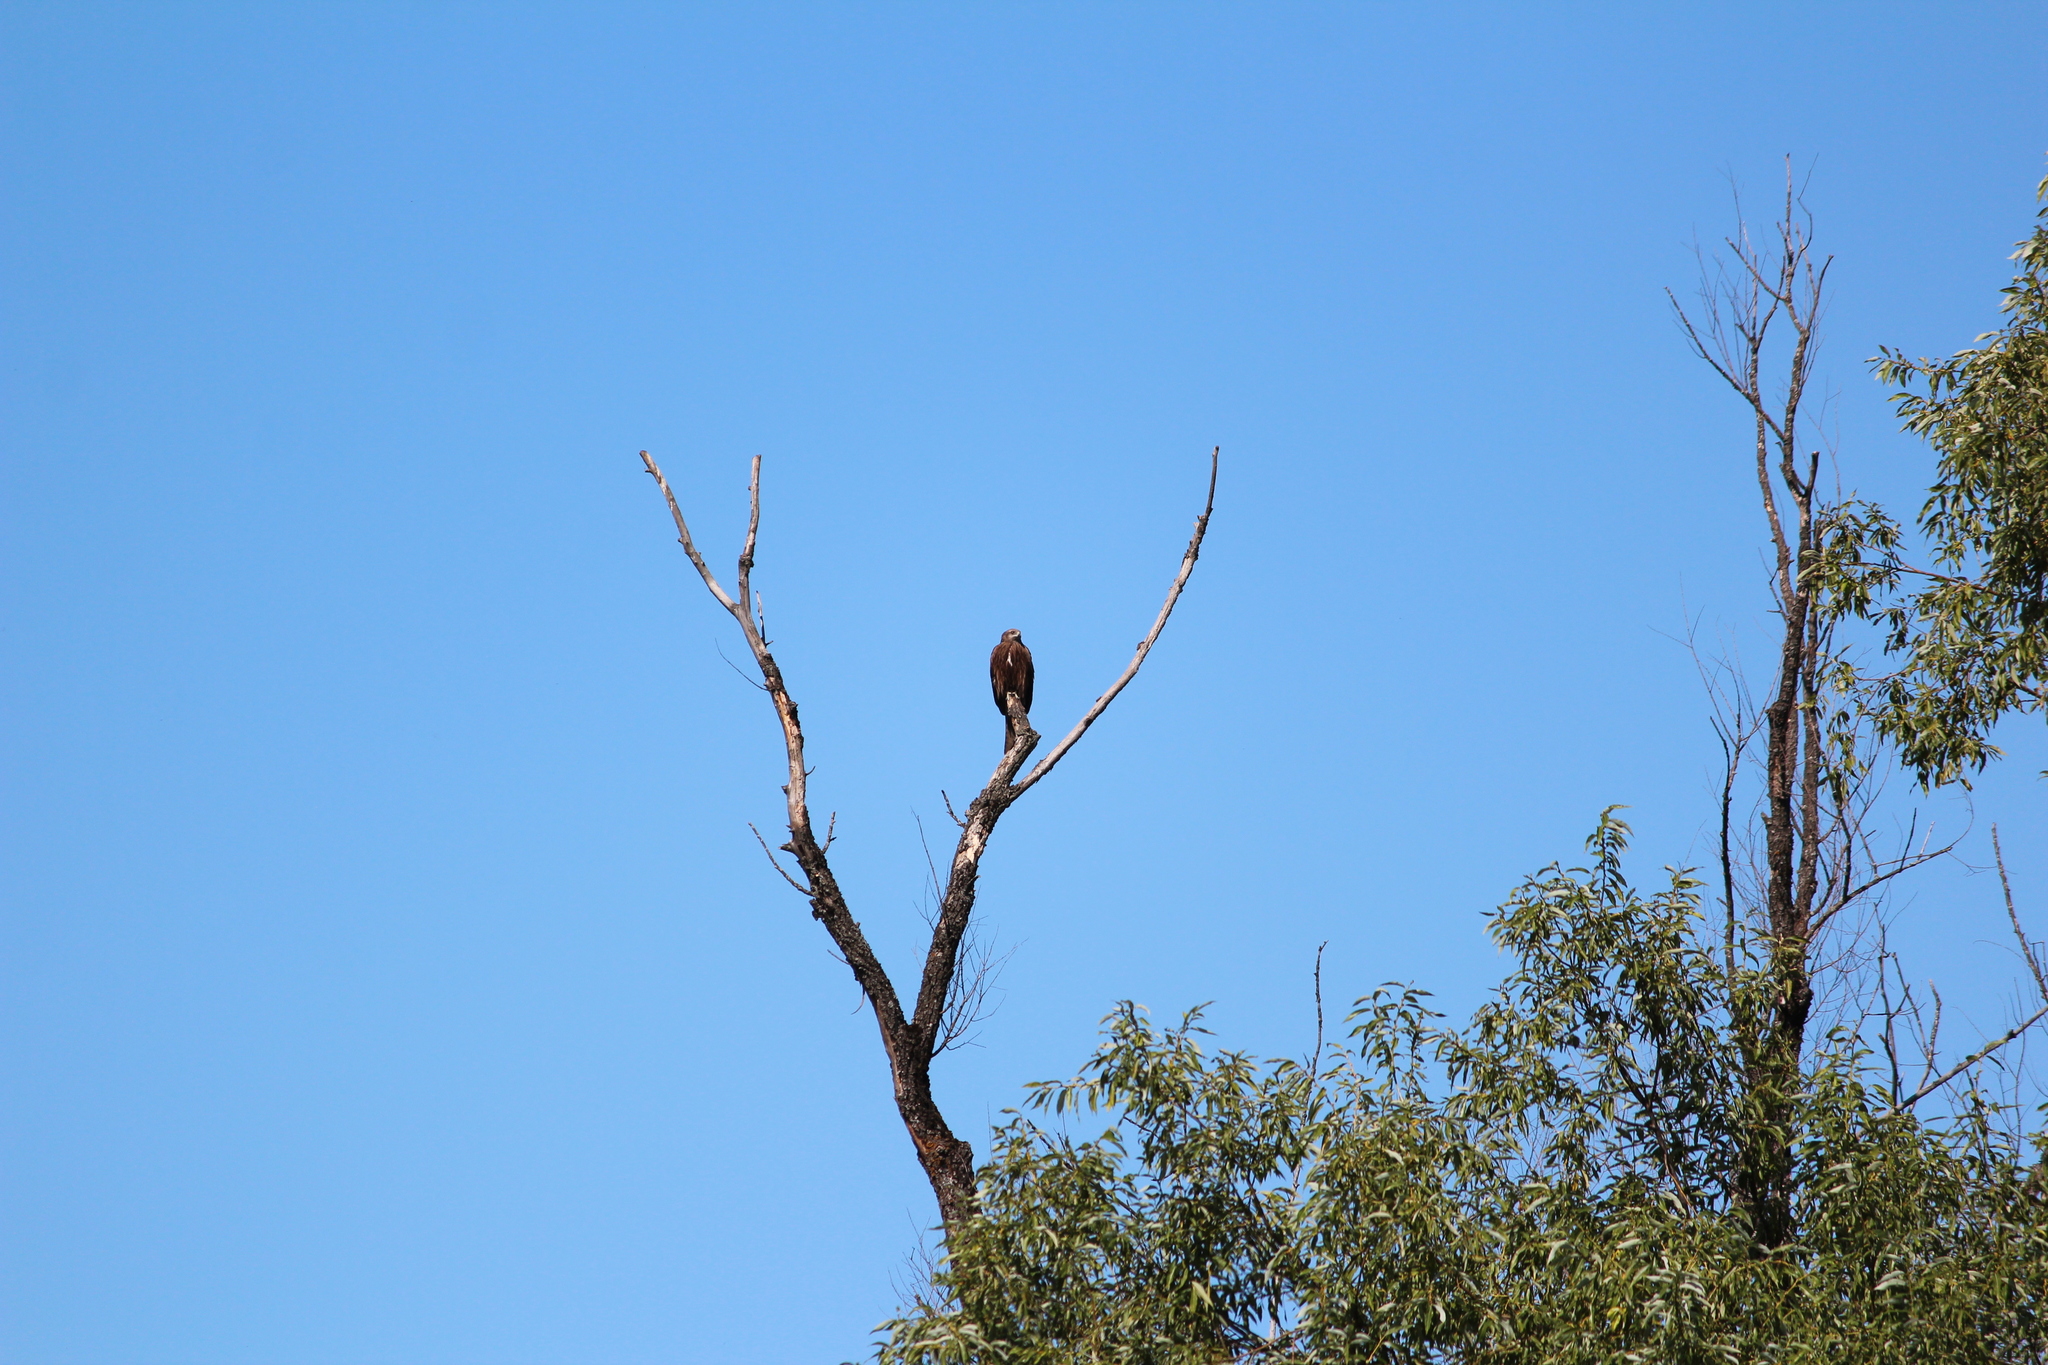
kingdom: Animalia
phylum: Chordata
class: Aves
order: Accipitriformes
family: Accipitridae
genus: Milvus
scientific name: Milvus migrans
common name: Black kite
